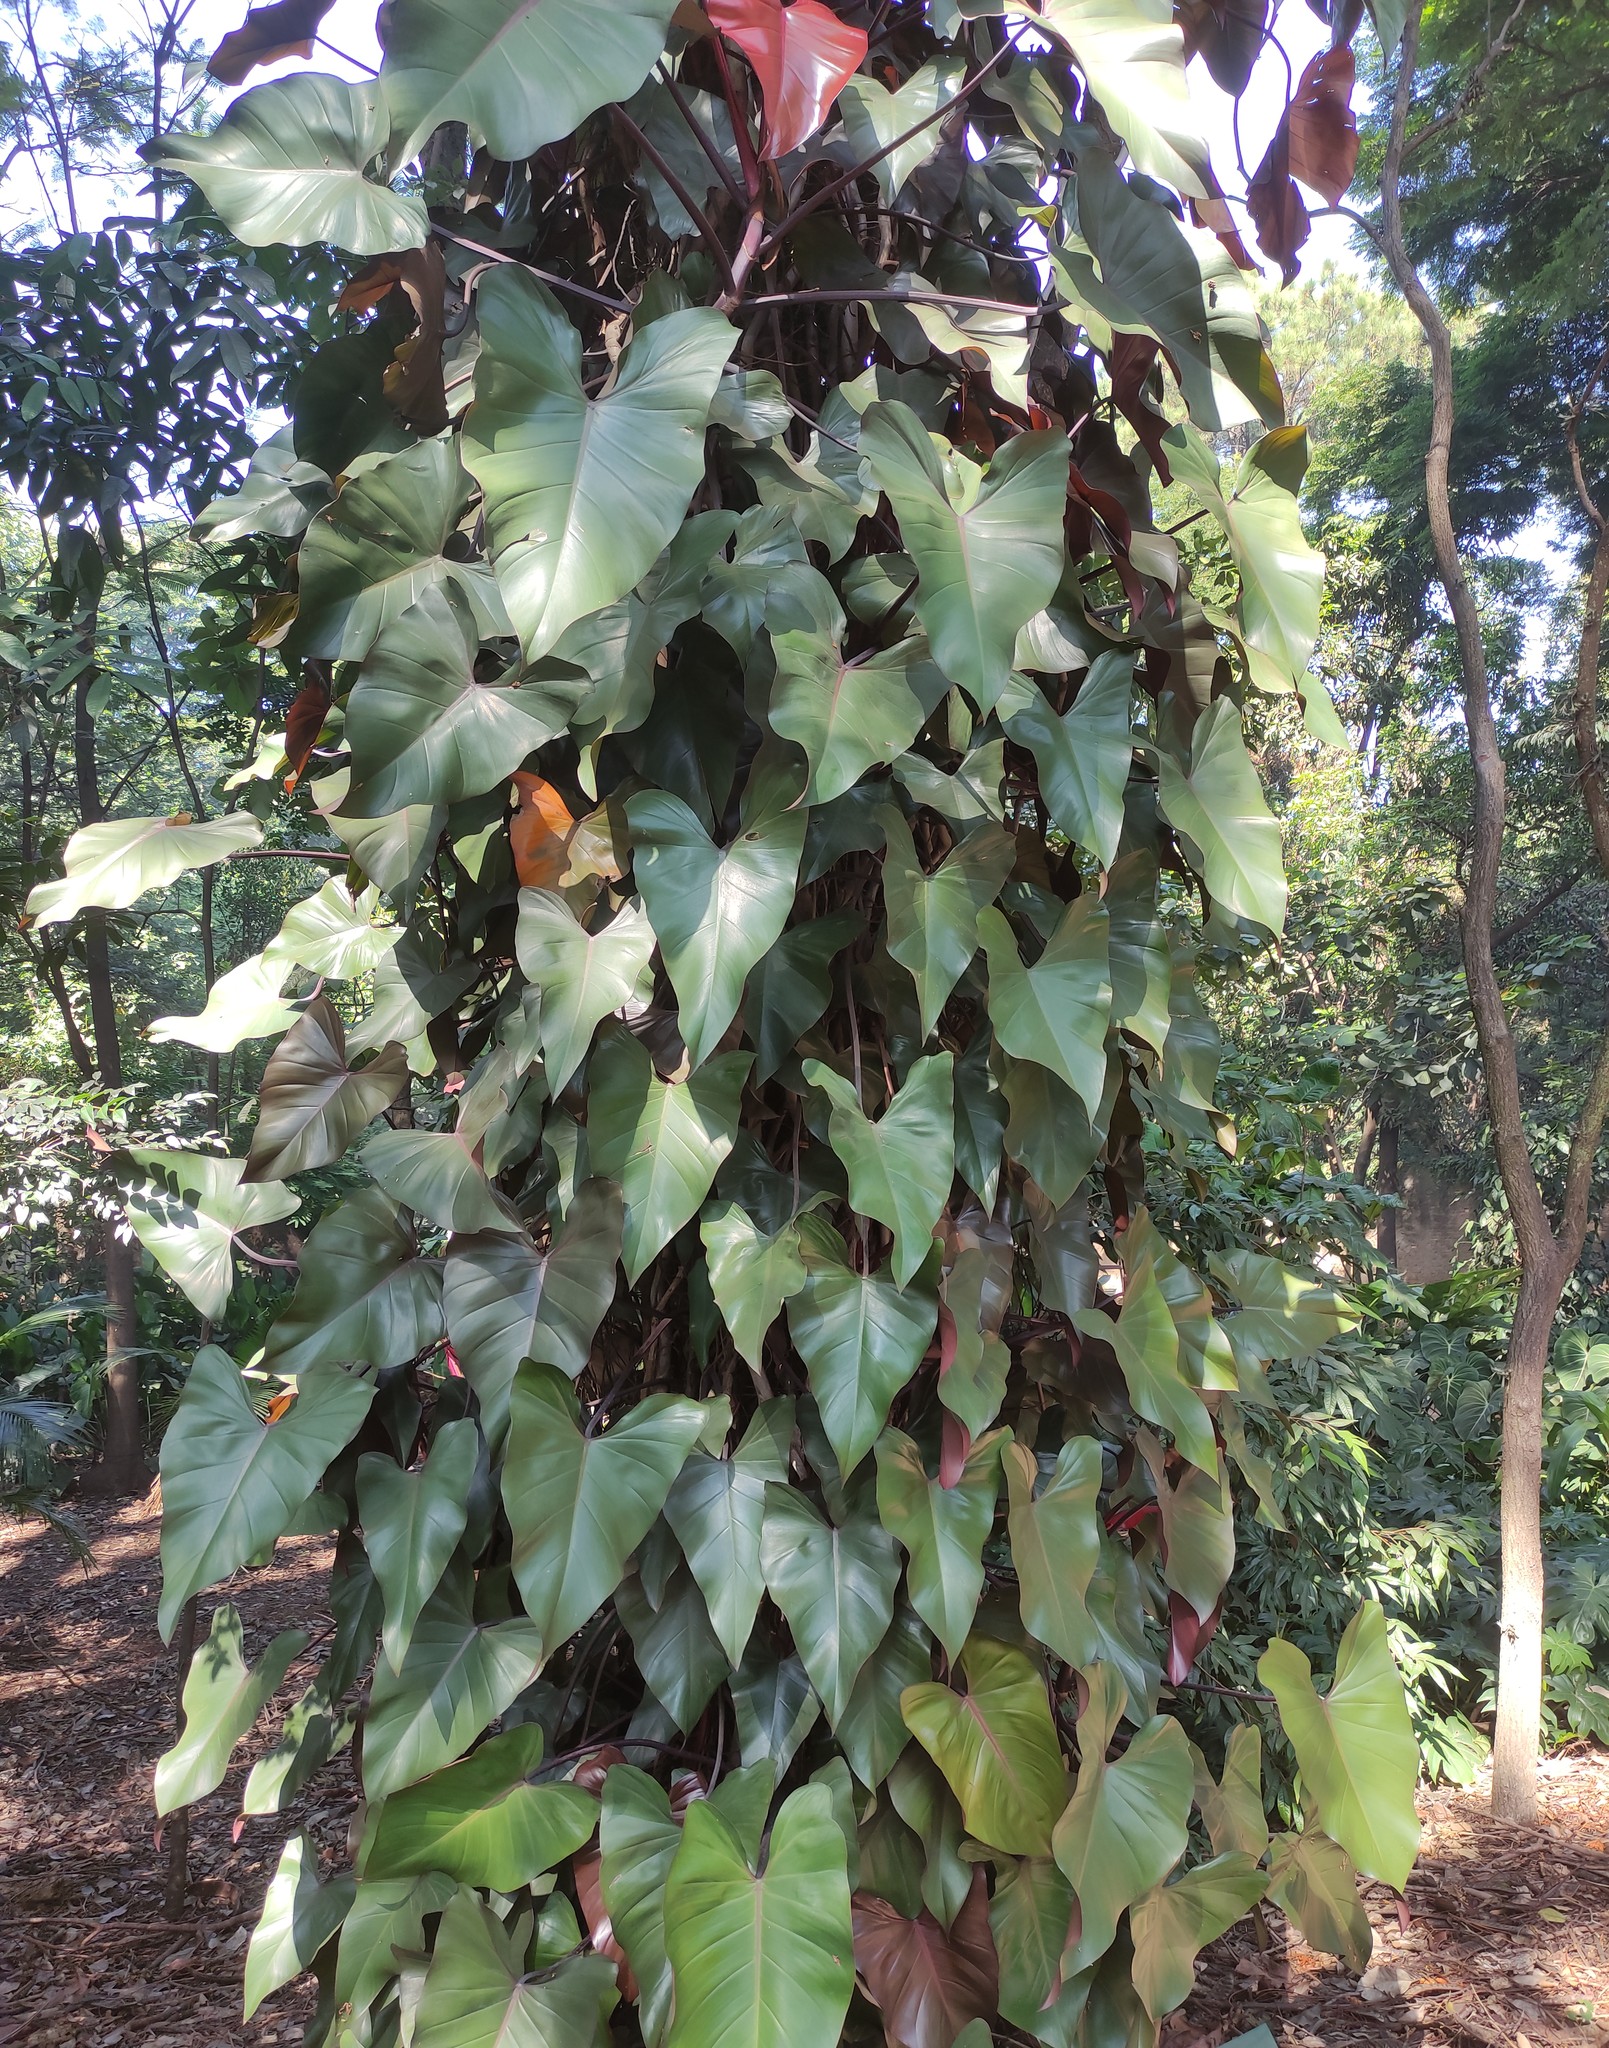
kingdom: Plantae
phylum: Tracheophyta
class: Liliopsida
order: Alismatales
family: Araceae
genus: Philodendron
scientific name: Philodendron erubescens
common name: Philodendron
